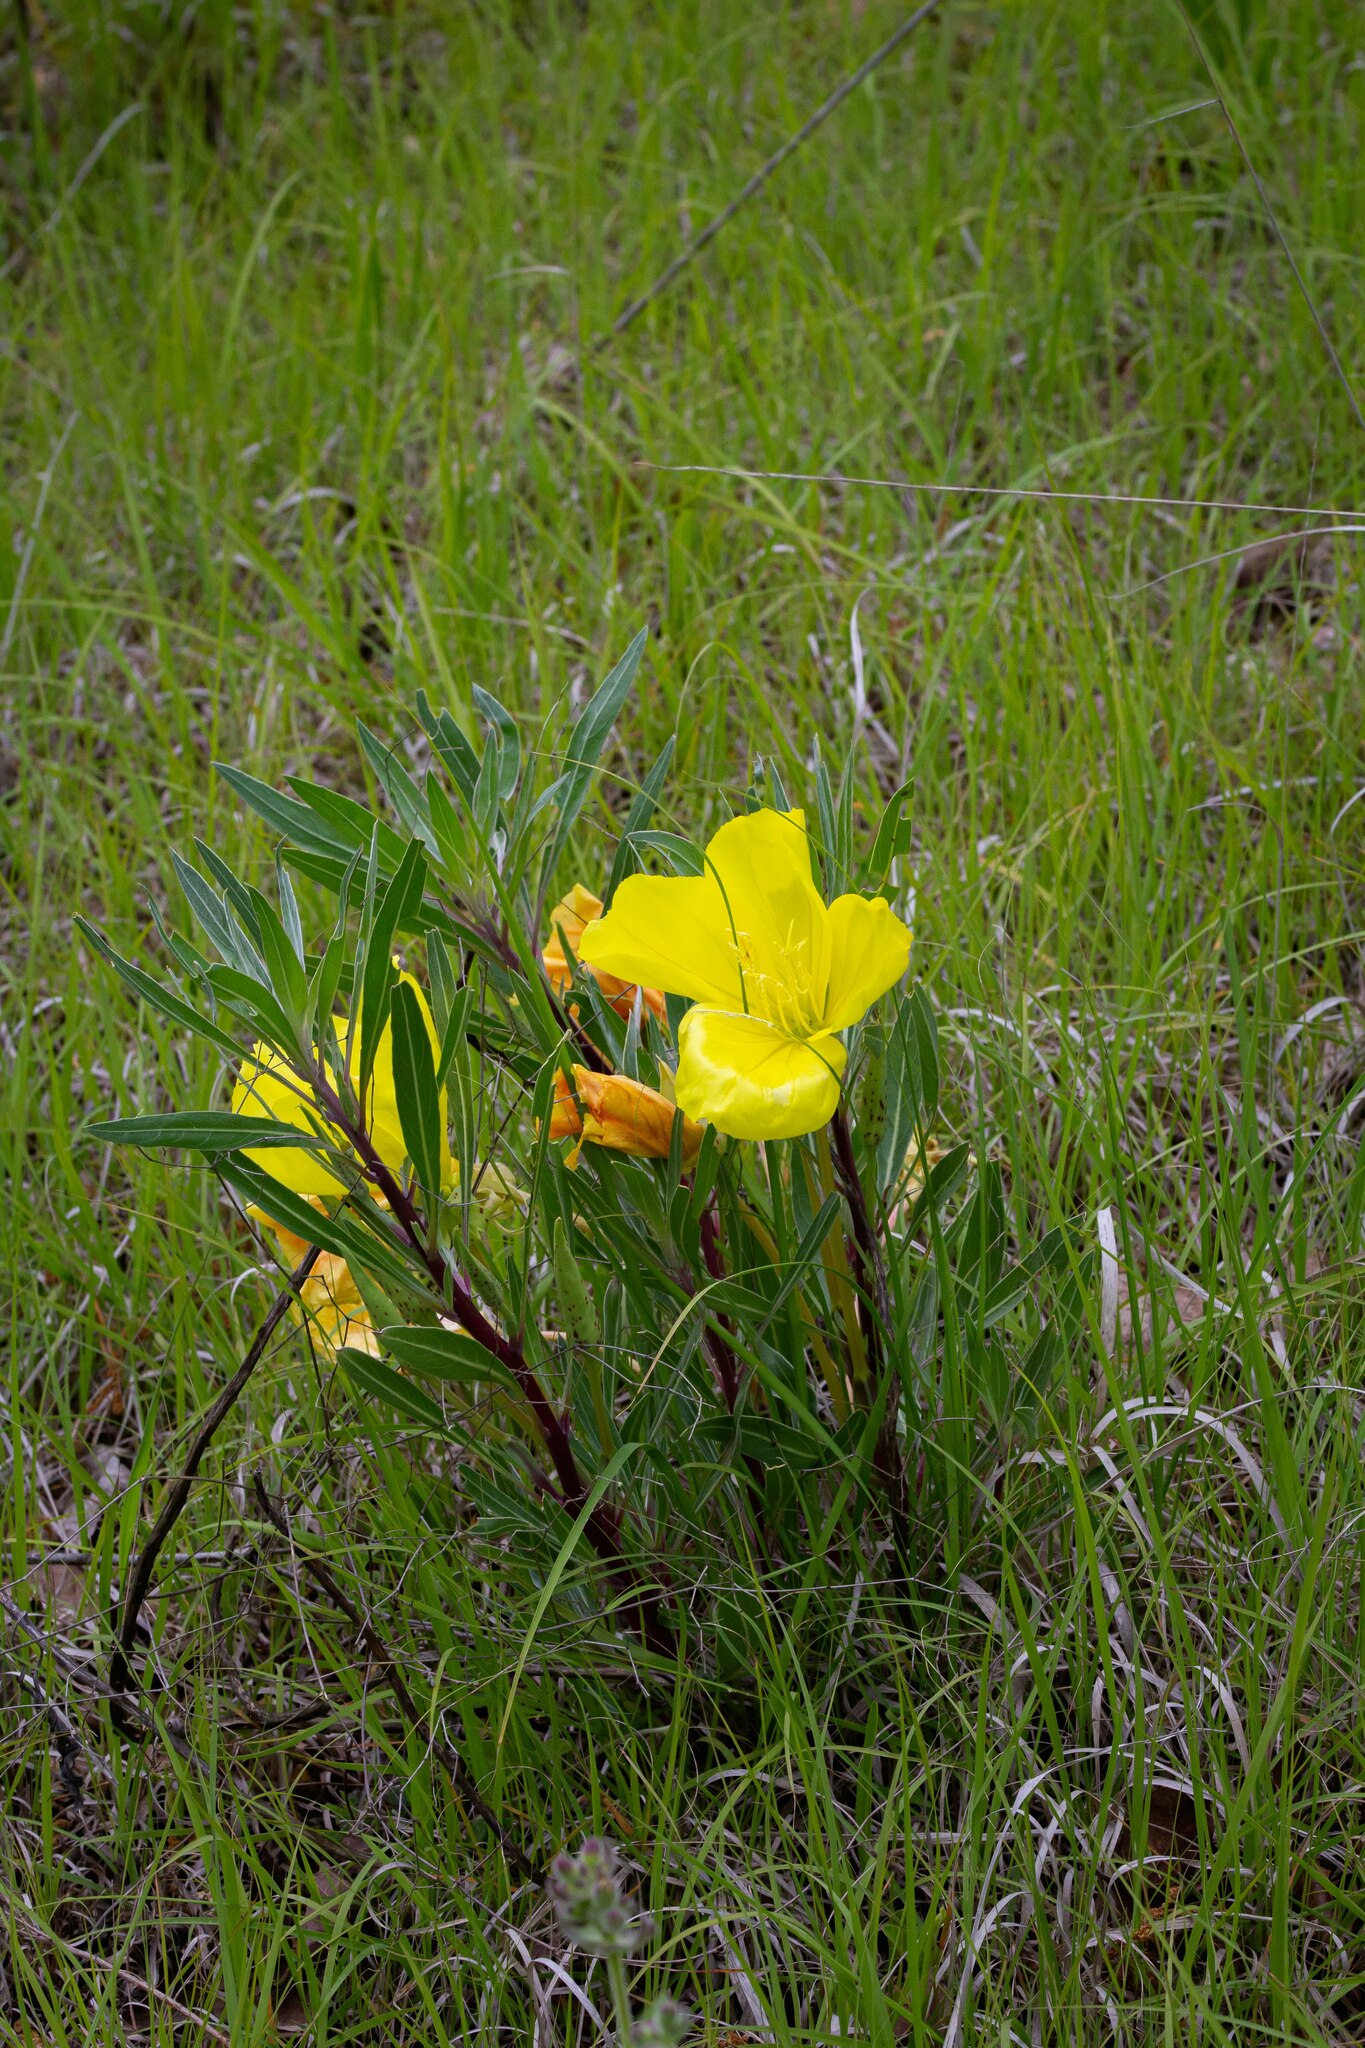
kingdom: Plantae
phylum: Tracheophyta
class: Magnoliopsida
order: Myrtales
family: Onagraceae
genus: Oenothera
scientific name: Oenothera macrocarpa
